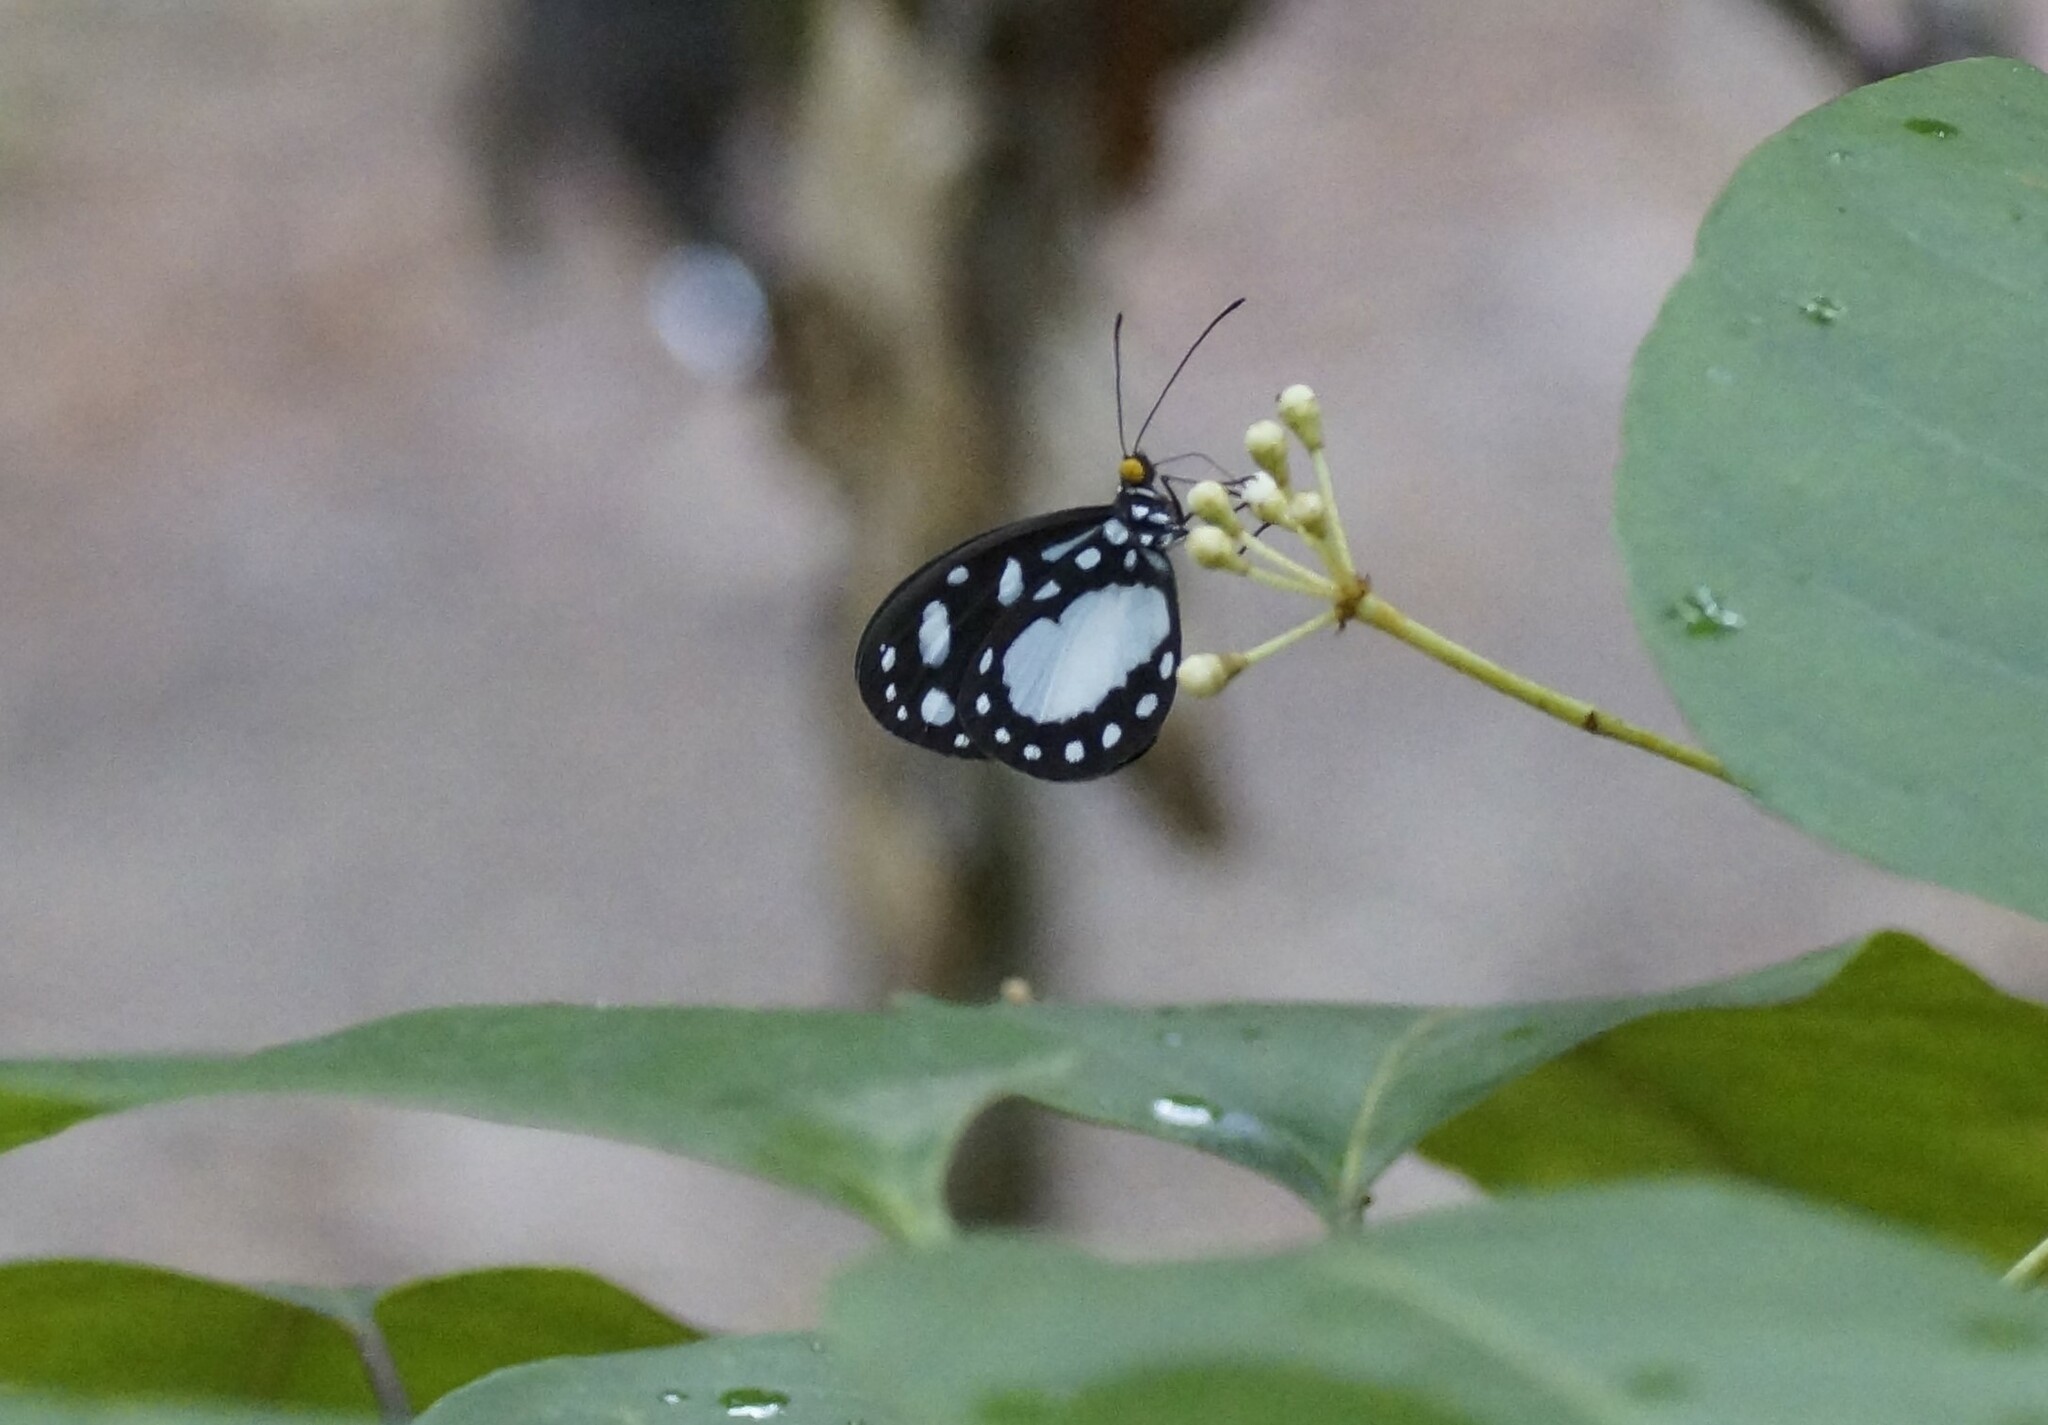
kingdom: Animalia
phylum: Arthropoda
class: Insecta
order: Lepidoptera
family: Nymphalidae
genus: Tellervo
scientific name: Tellervo zoilus
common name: Hamadryad
